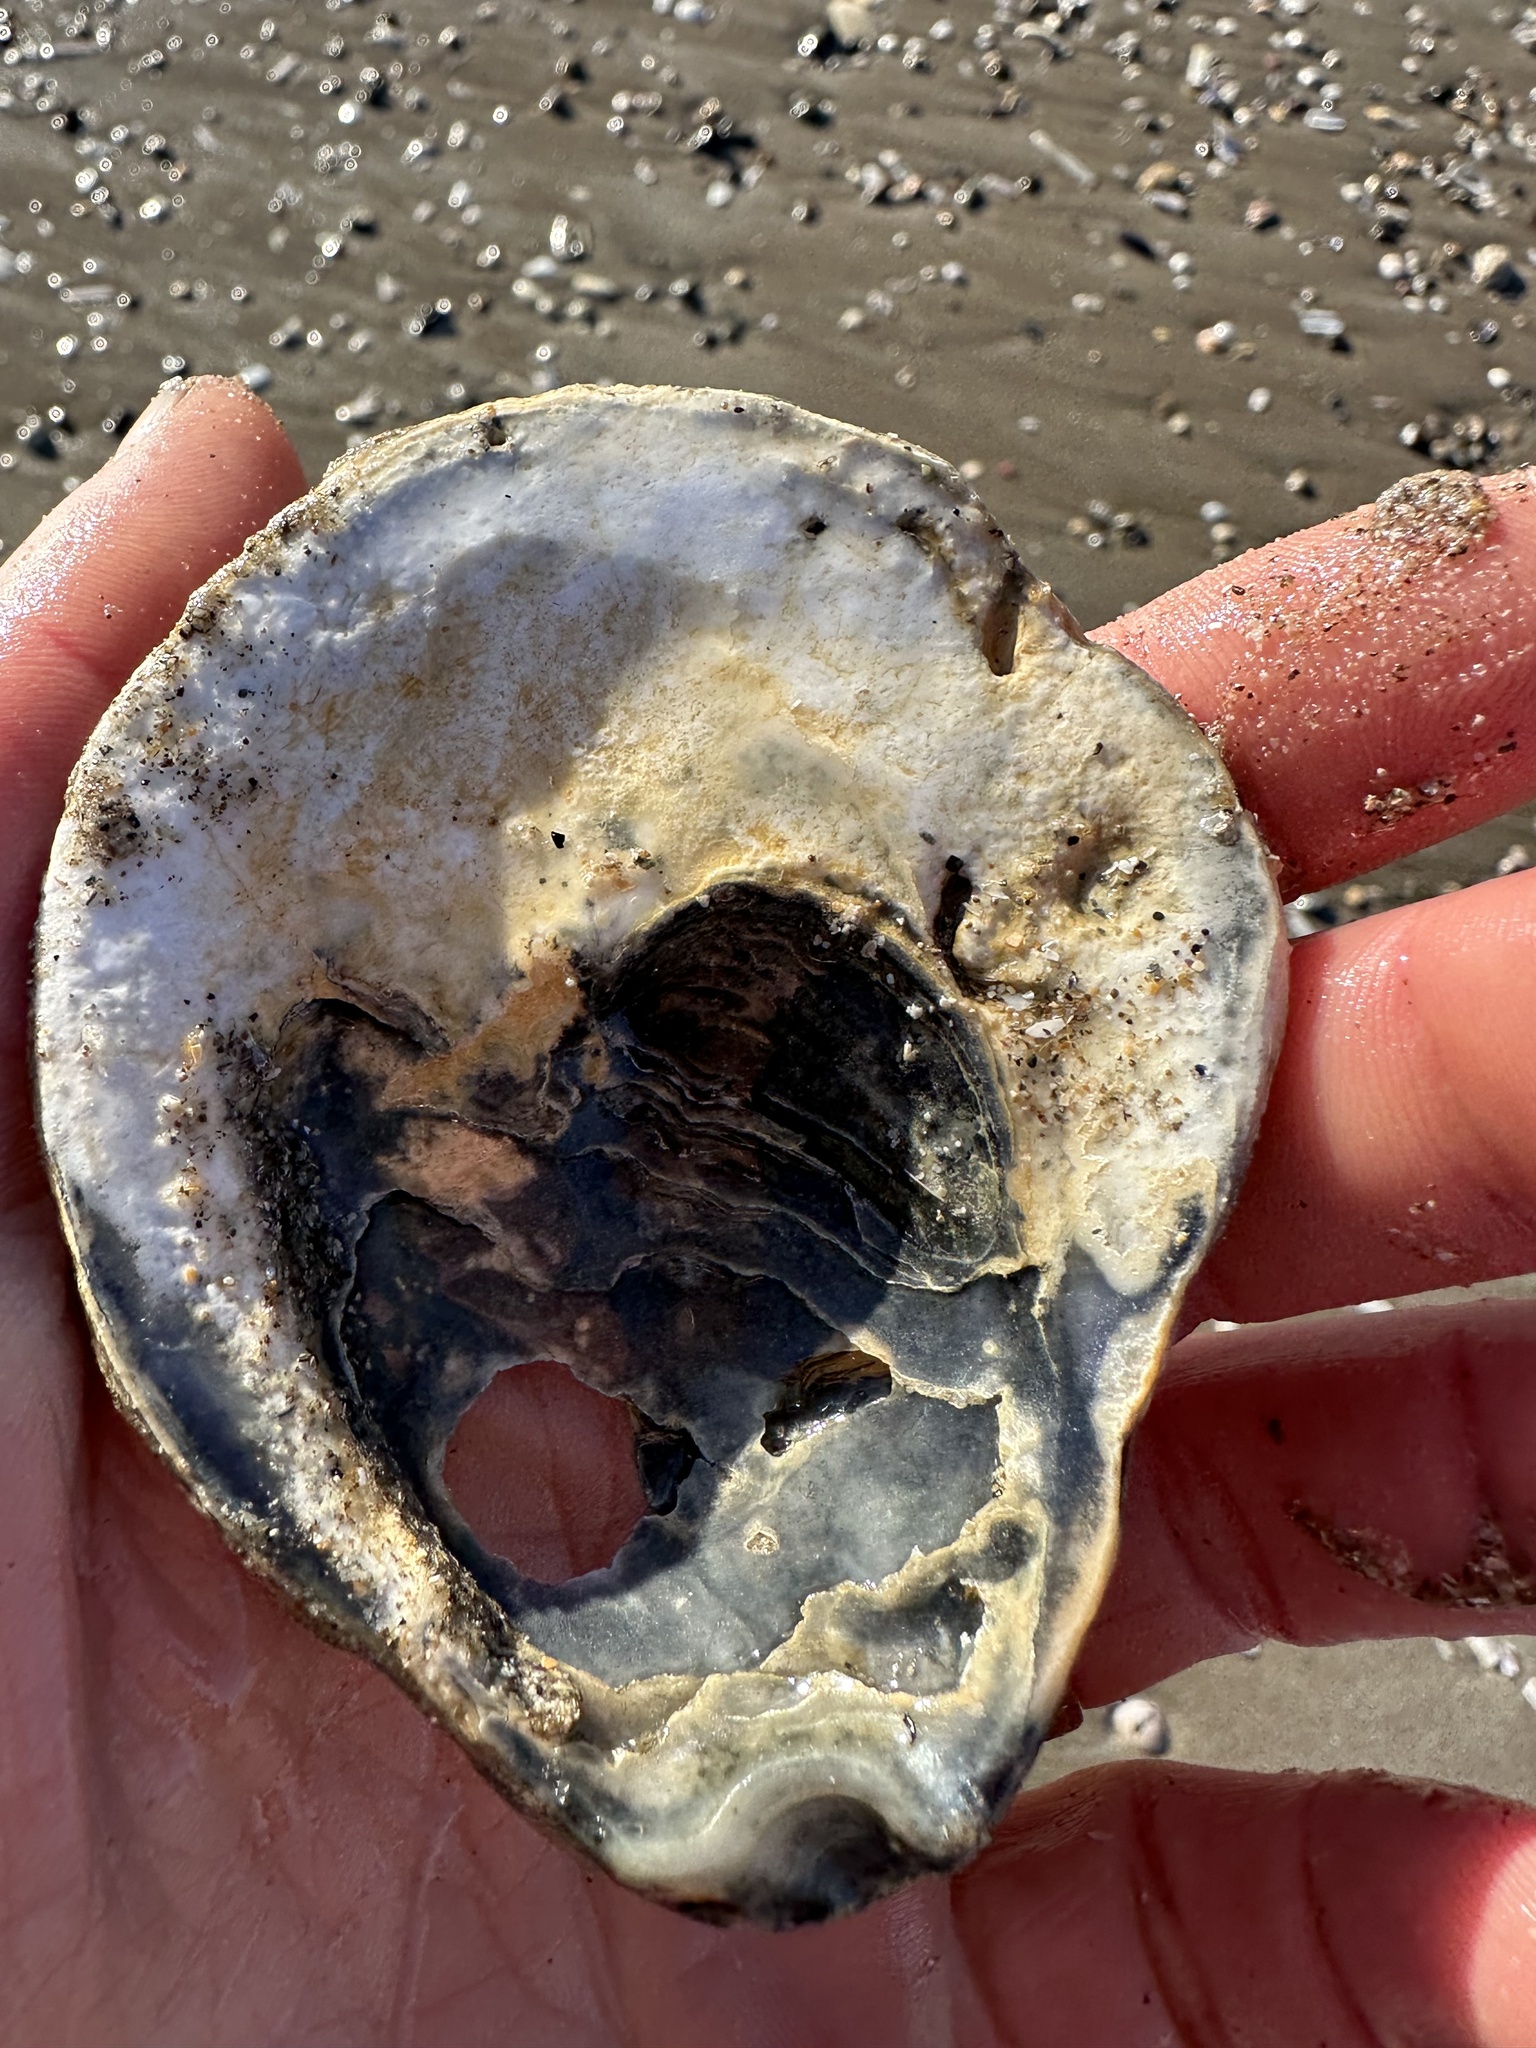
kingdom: Animalia
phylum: Mollusca
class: Bivalvia
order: Ostreida
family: Ostreidae
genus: Ostrea
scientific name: Ostrea edulis
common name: Flat oyster
